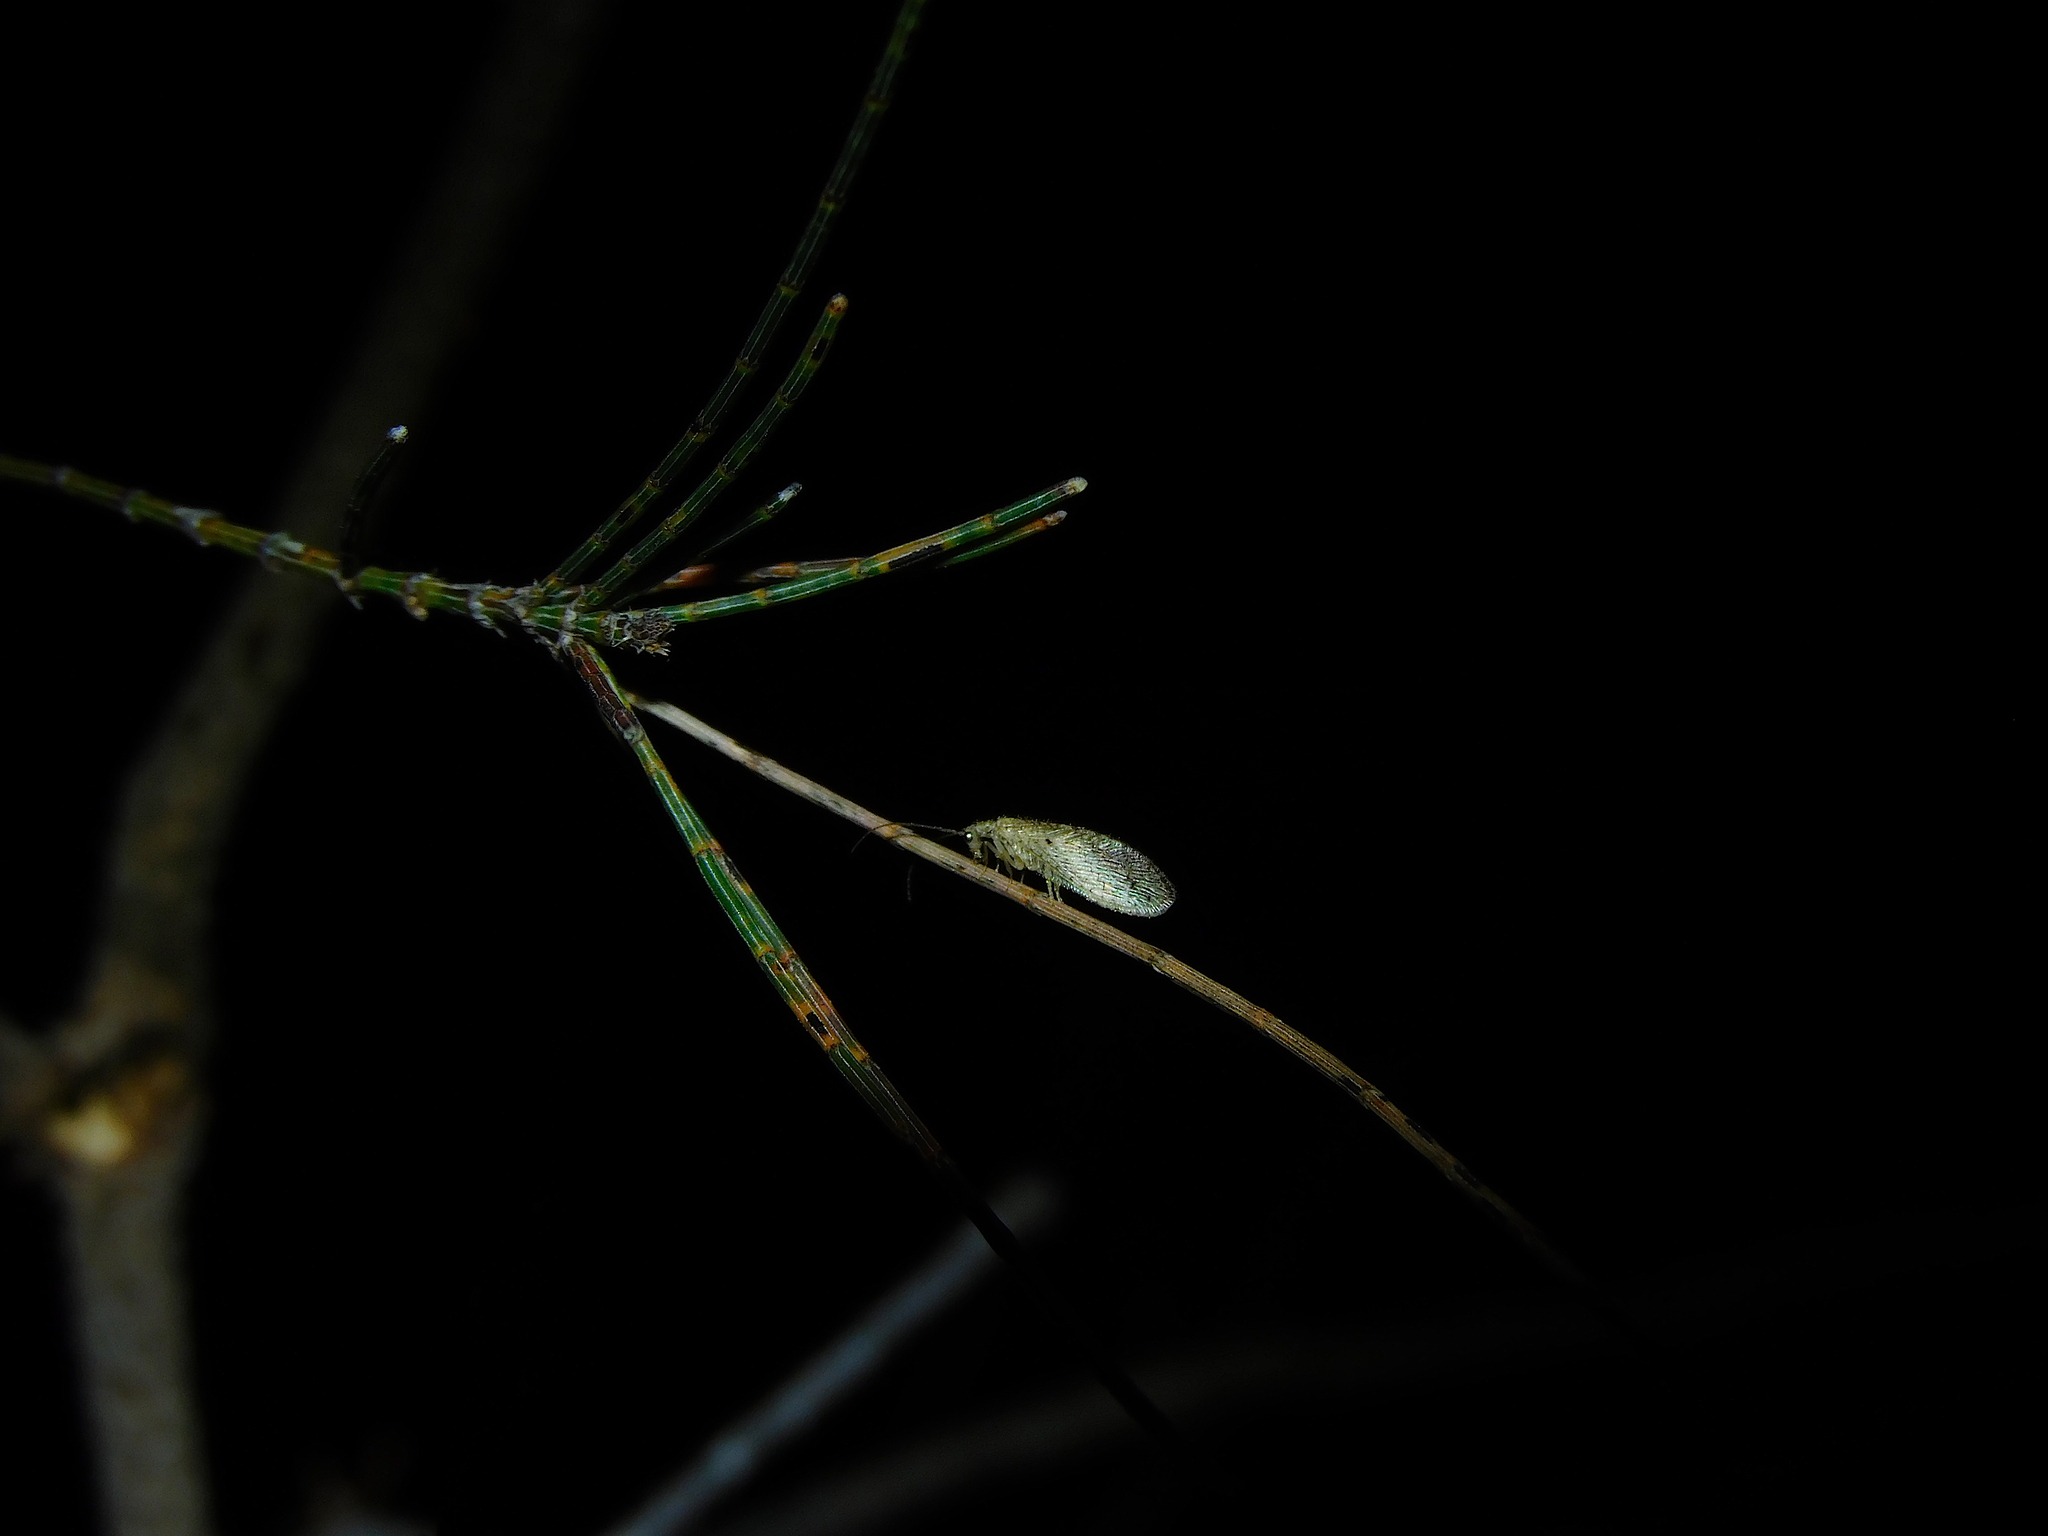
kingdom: Animalia
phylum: Arthropoda
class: Insecta
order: Neuroptera
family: Hemerobiidae
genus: Micromus
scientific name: Micromus tasmaniae
